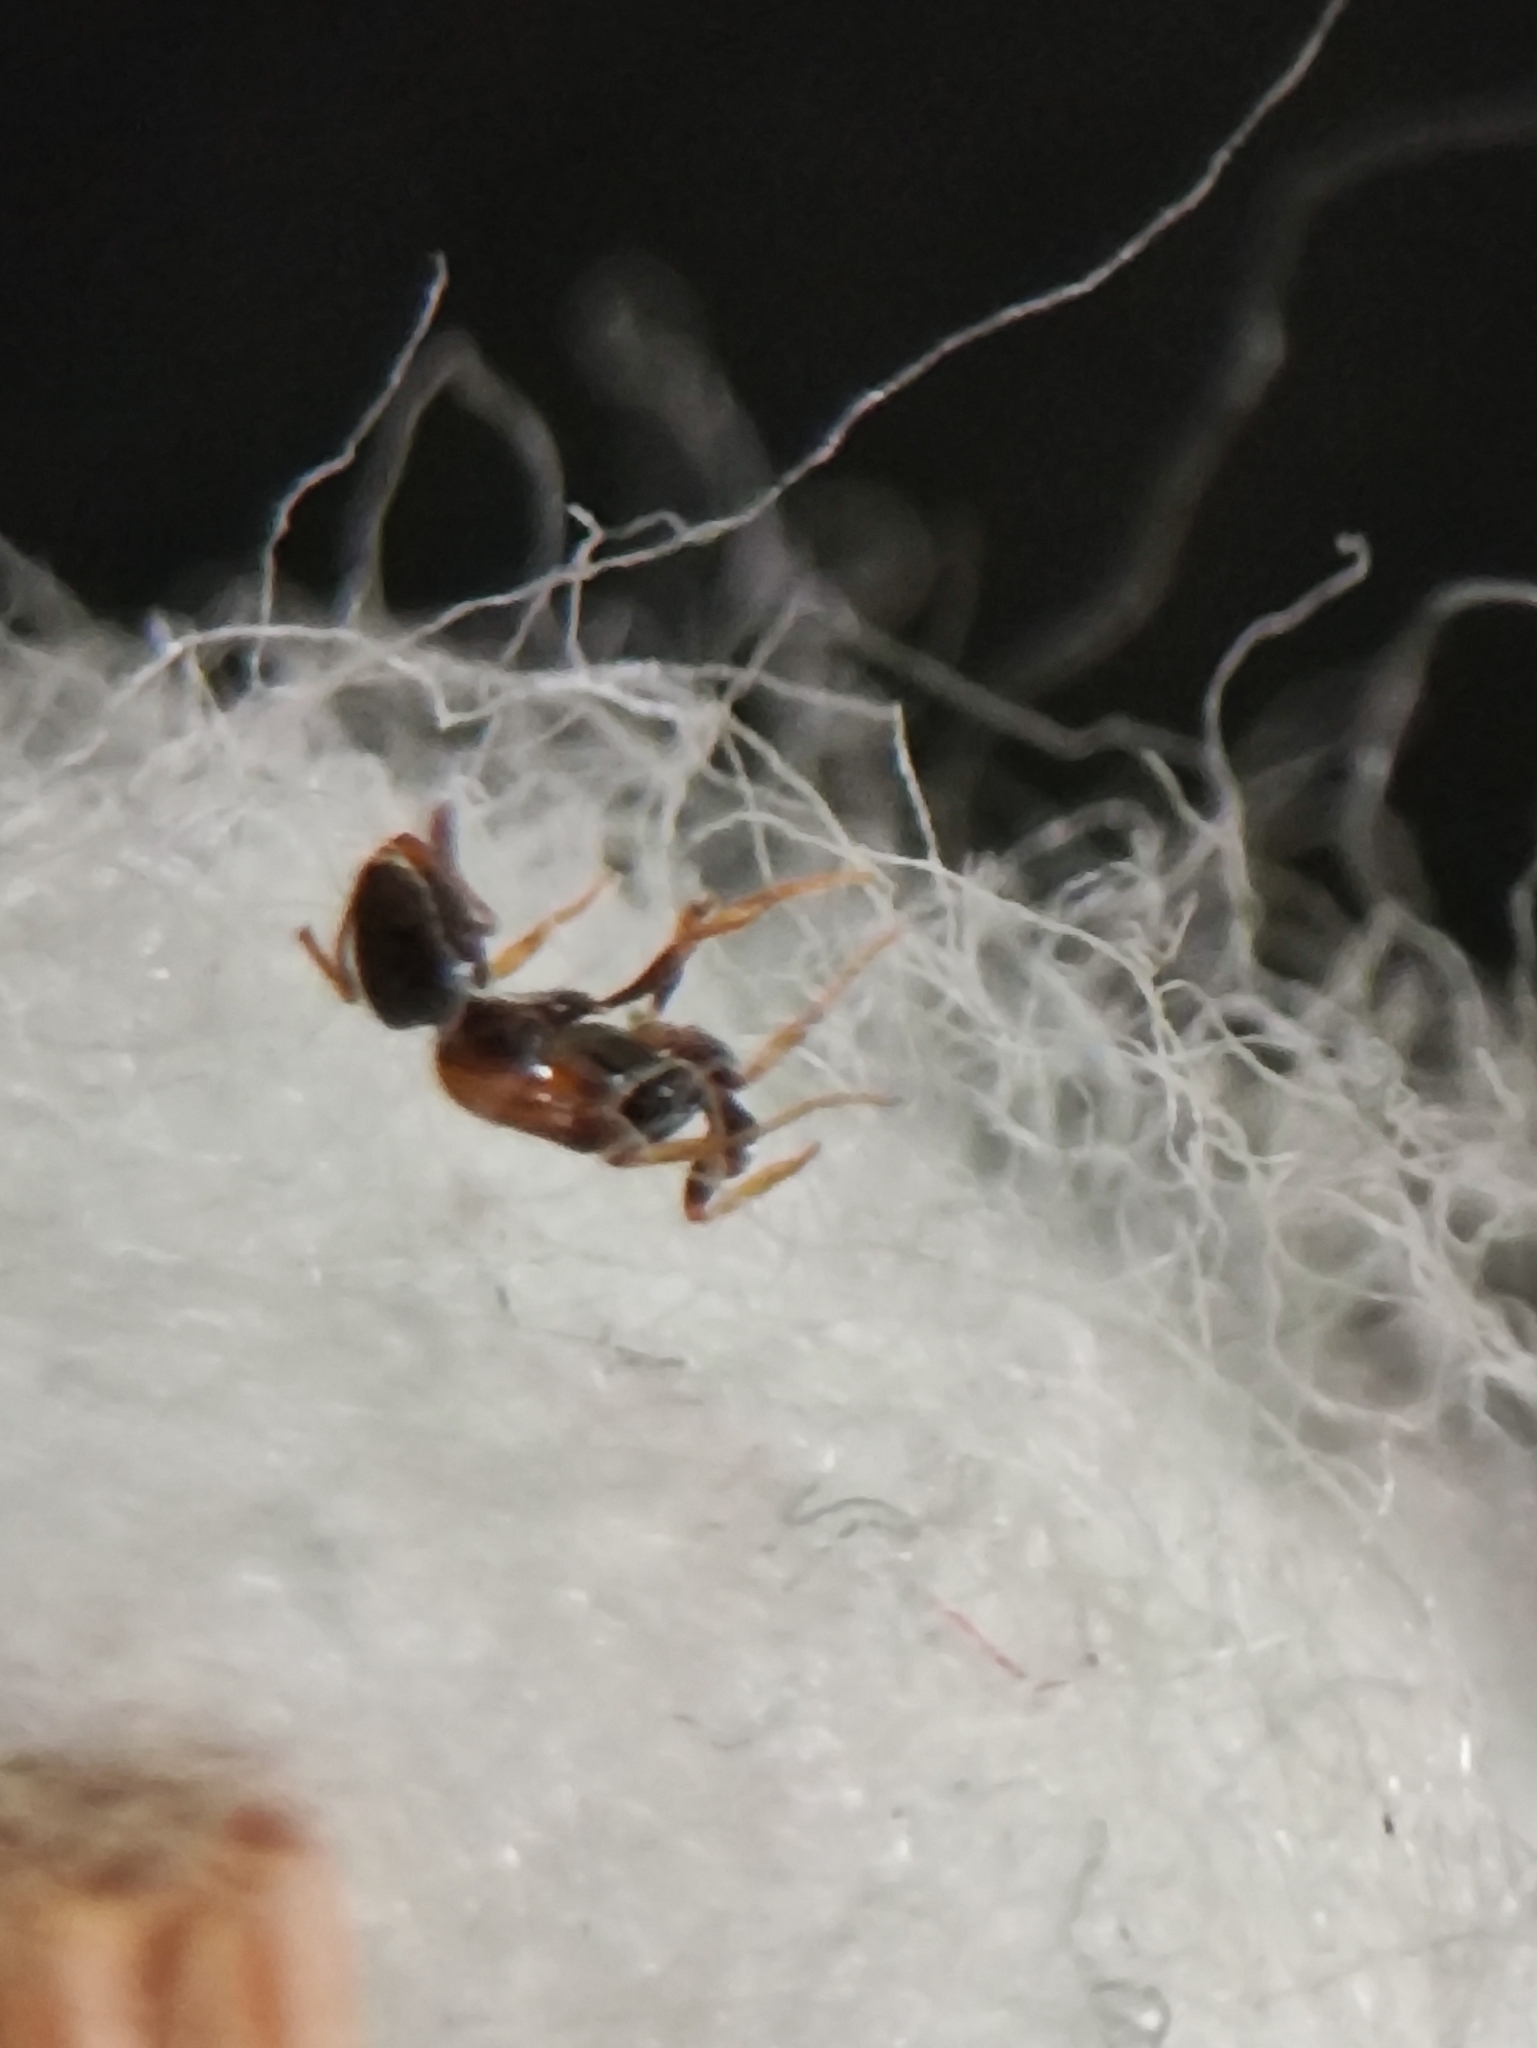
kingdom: Animalia
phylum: Arthropoda
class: Insecta
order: Hymenoptera
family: Formicidae
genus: Monomorium
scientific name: Monomorium floricola
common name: Bicolored trailing ant
